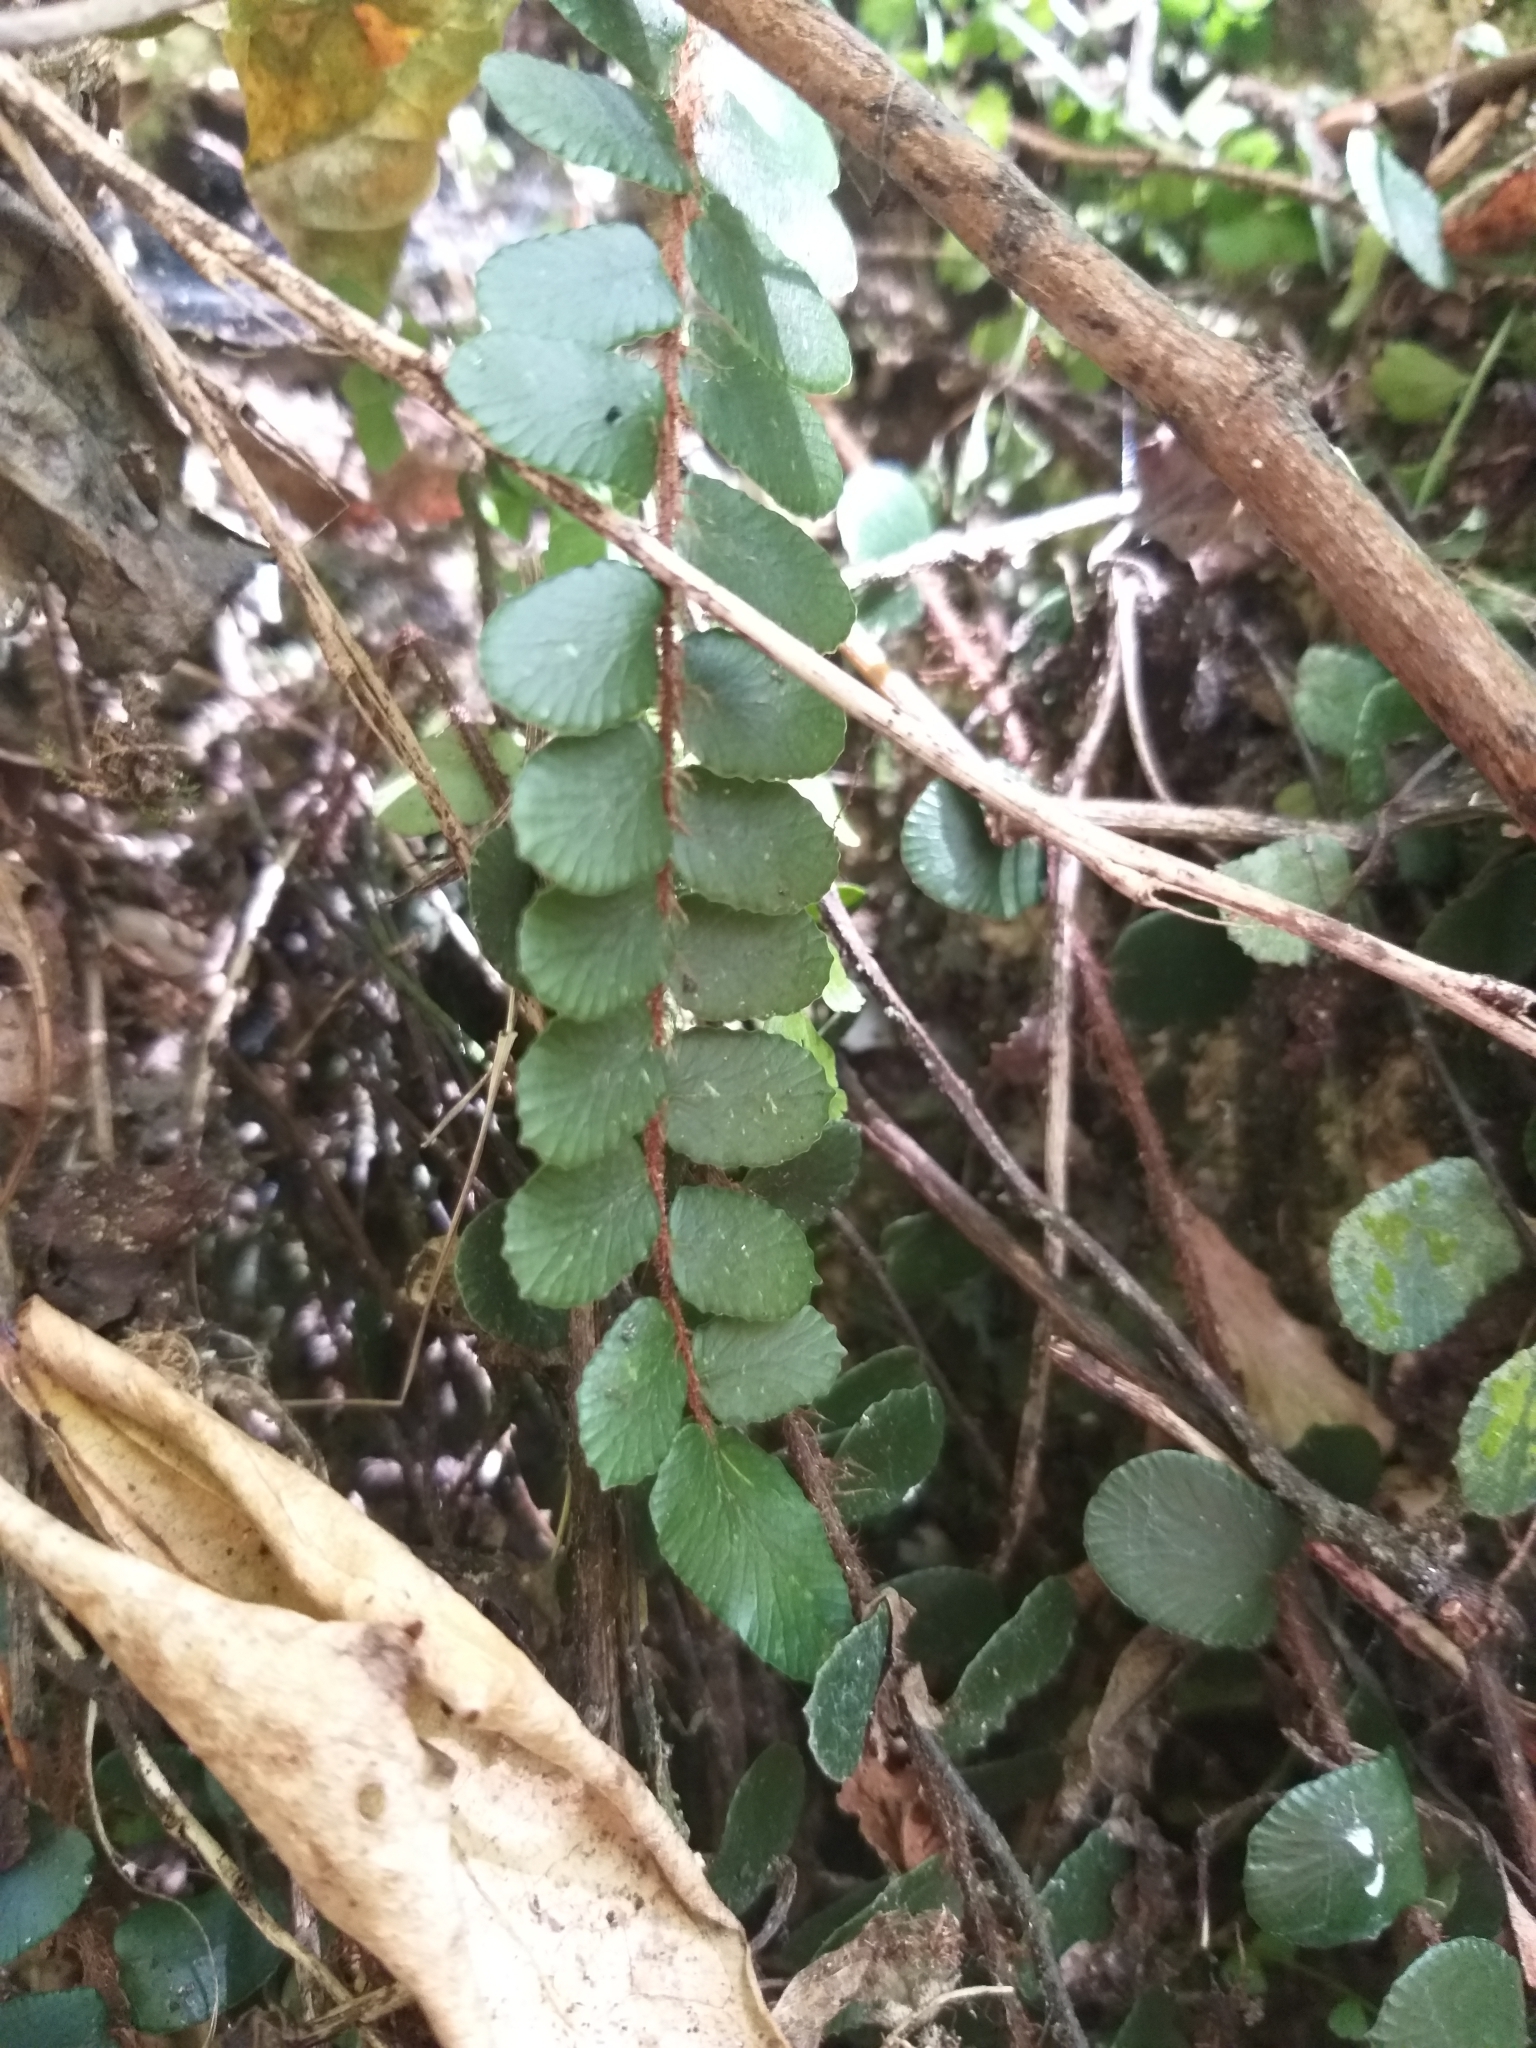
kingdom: Plantae
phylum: Tracheophyta
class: Polypodiopsida
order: Polypodiales
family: Pteridaceae
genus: Pellaea
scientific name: Pellaea rotundifolia
